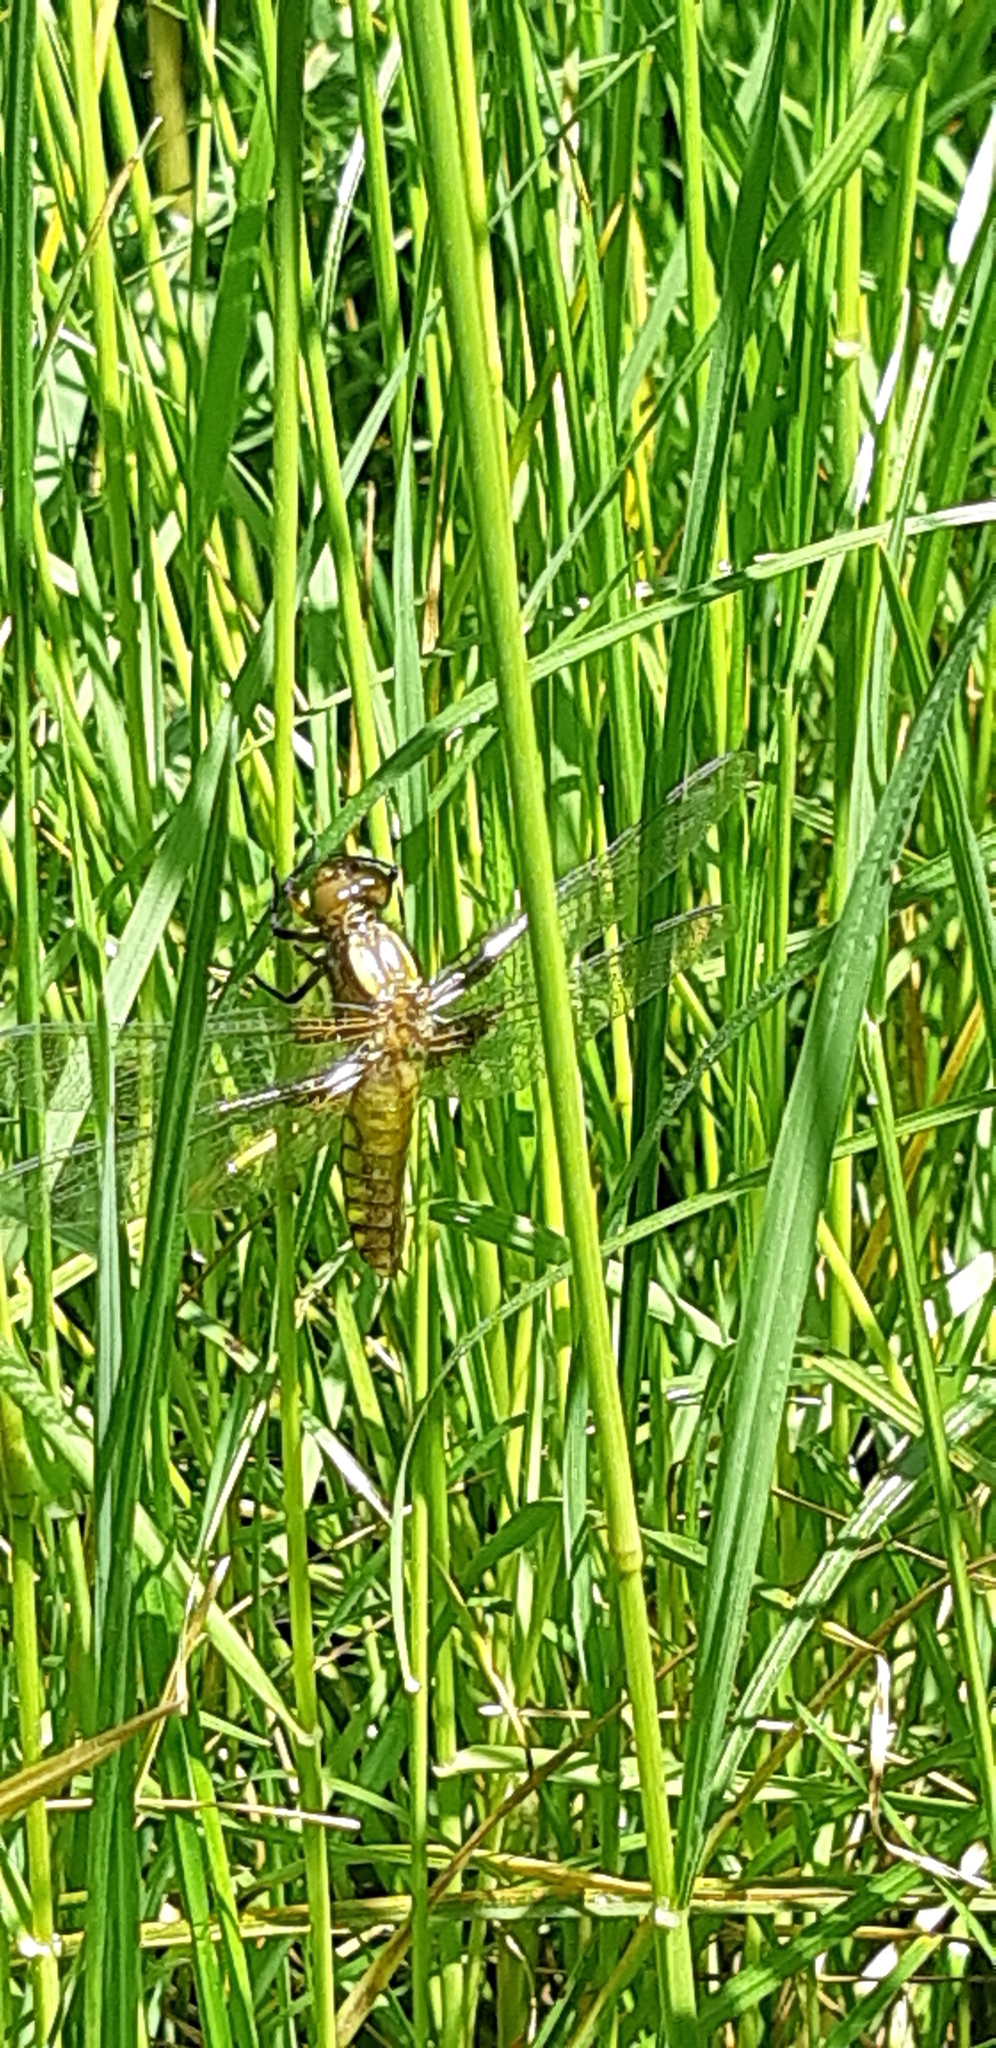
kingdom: Animalia
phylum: Arthropoda
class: Insecta
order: Odonata
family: Libellulidae
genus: Libellula
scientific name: Libellula depressa
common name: Broad-bodied chaser
